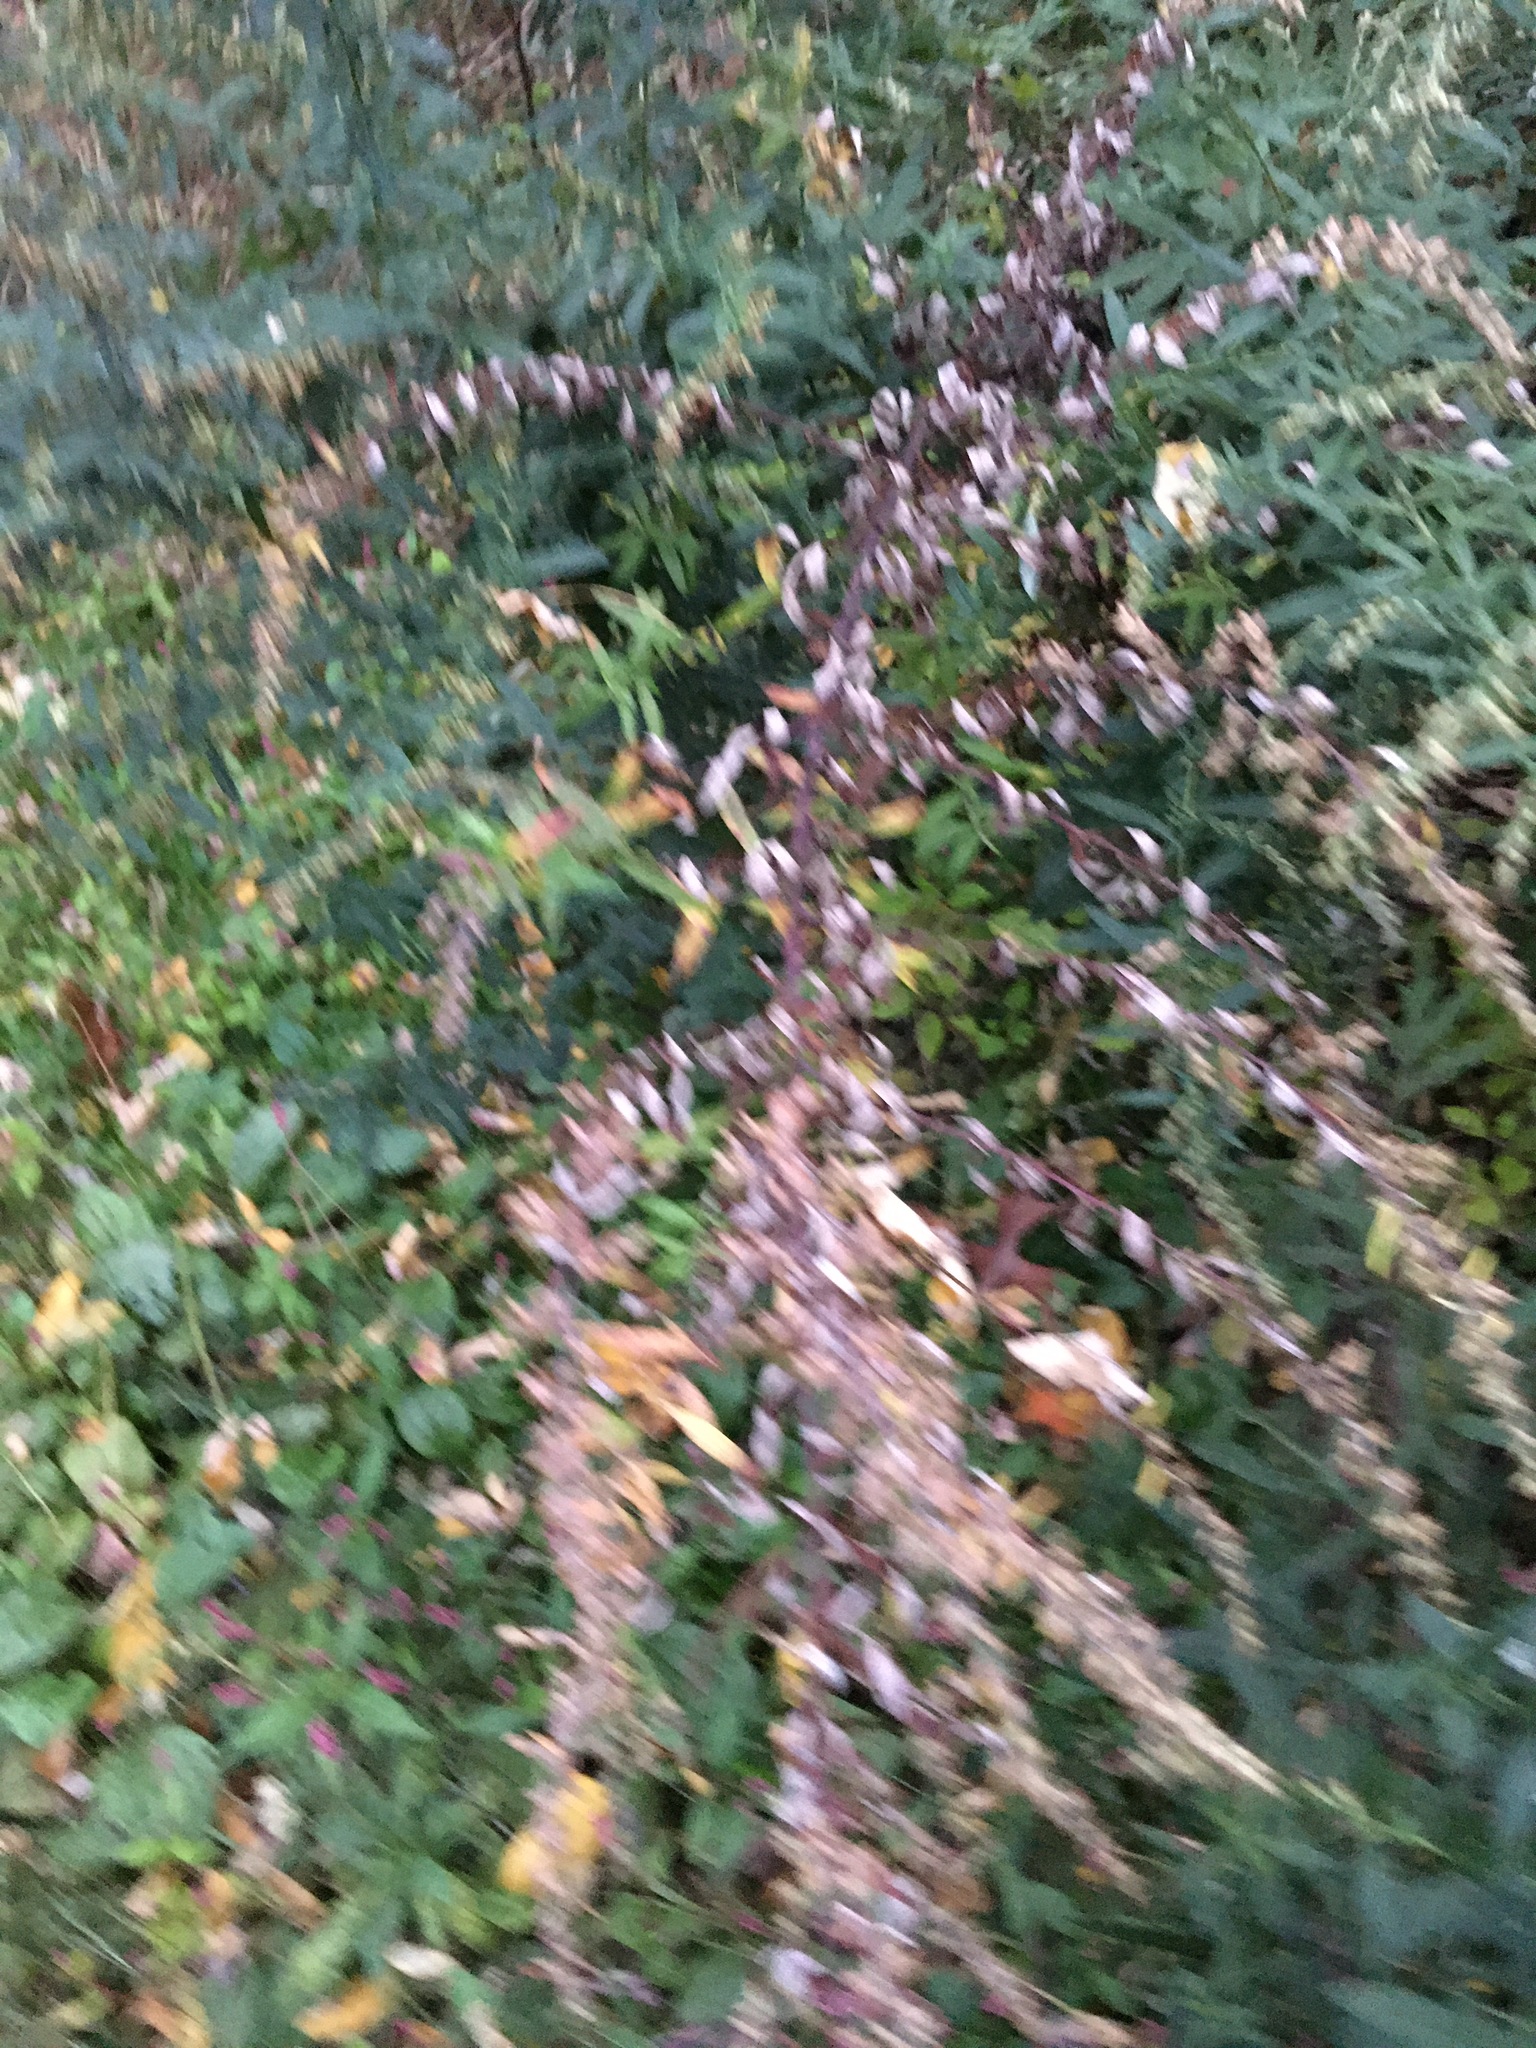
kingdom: Plantae
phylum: Tracheophyta
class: Magnoliopsida
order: Asterales
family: Asteraceae
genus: Artemisia
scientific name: Artemisia vulgaris
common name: Mugwort
